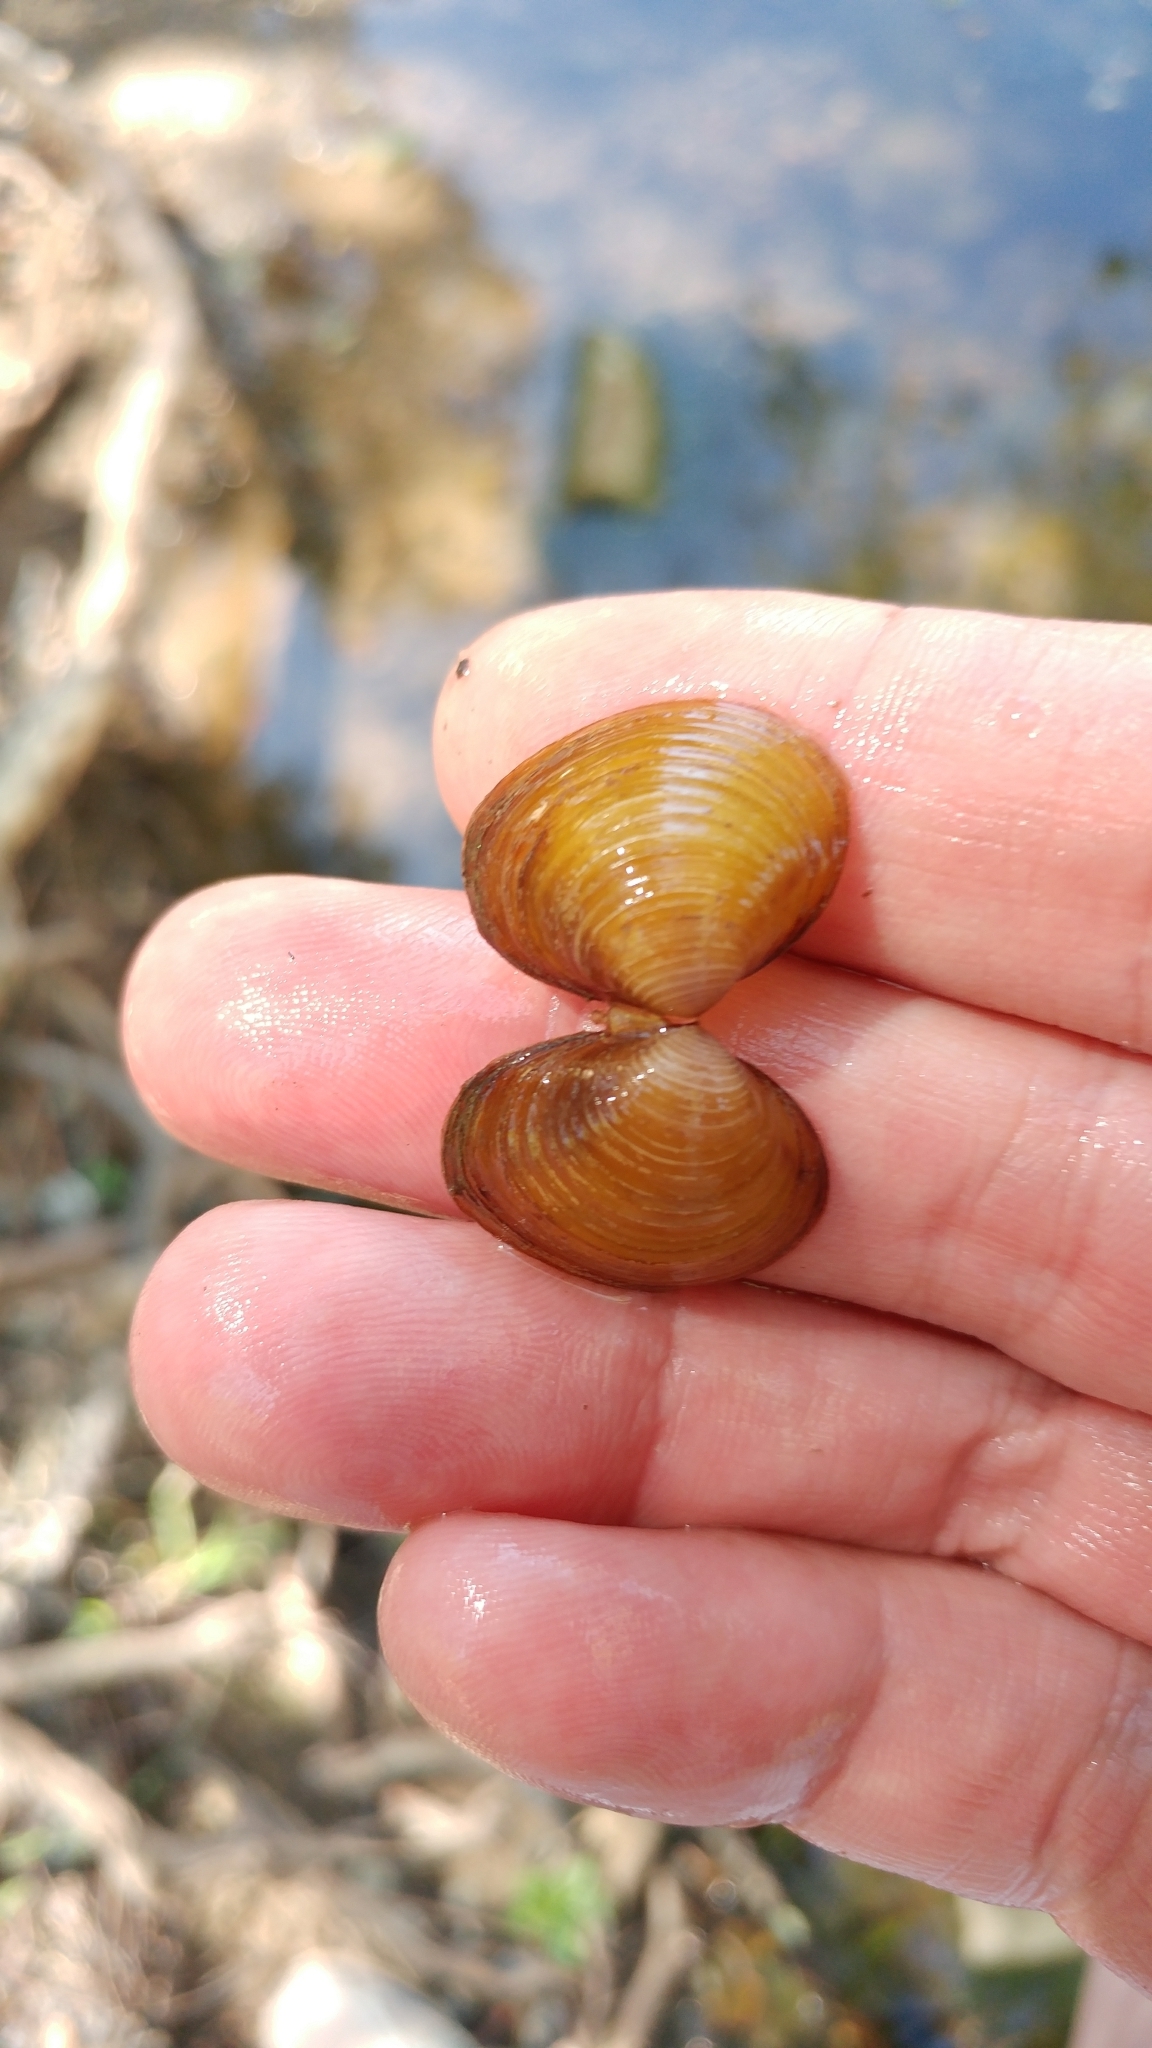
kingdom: Animalia
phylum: Mollusca
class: Bivalvia
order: Venerida
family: Cyrenidae
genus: Corbicula
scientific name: Corbicula fluminea
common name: Asian clam
